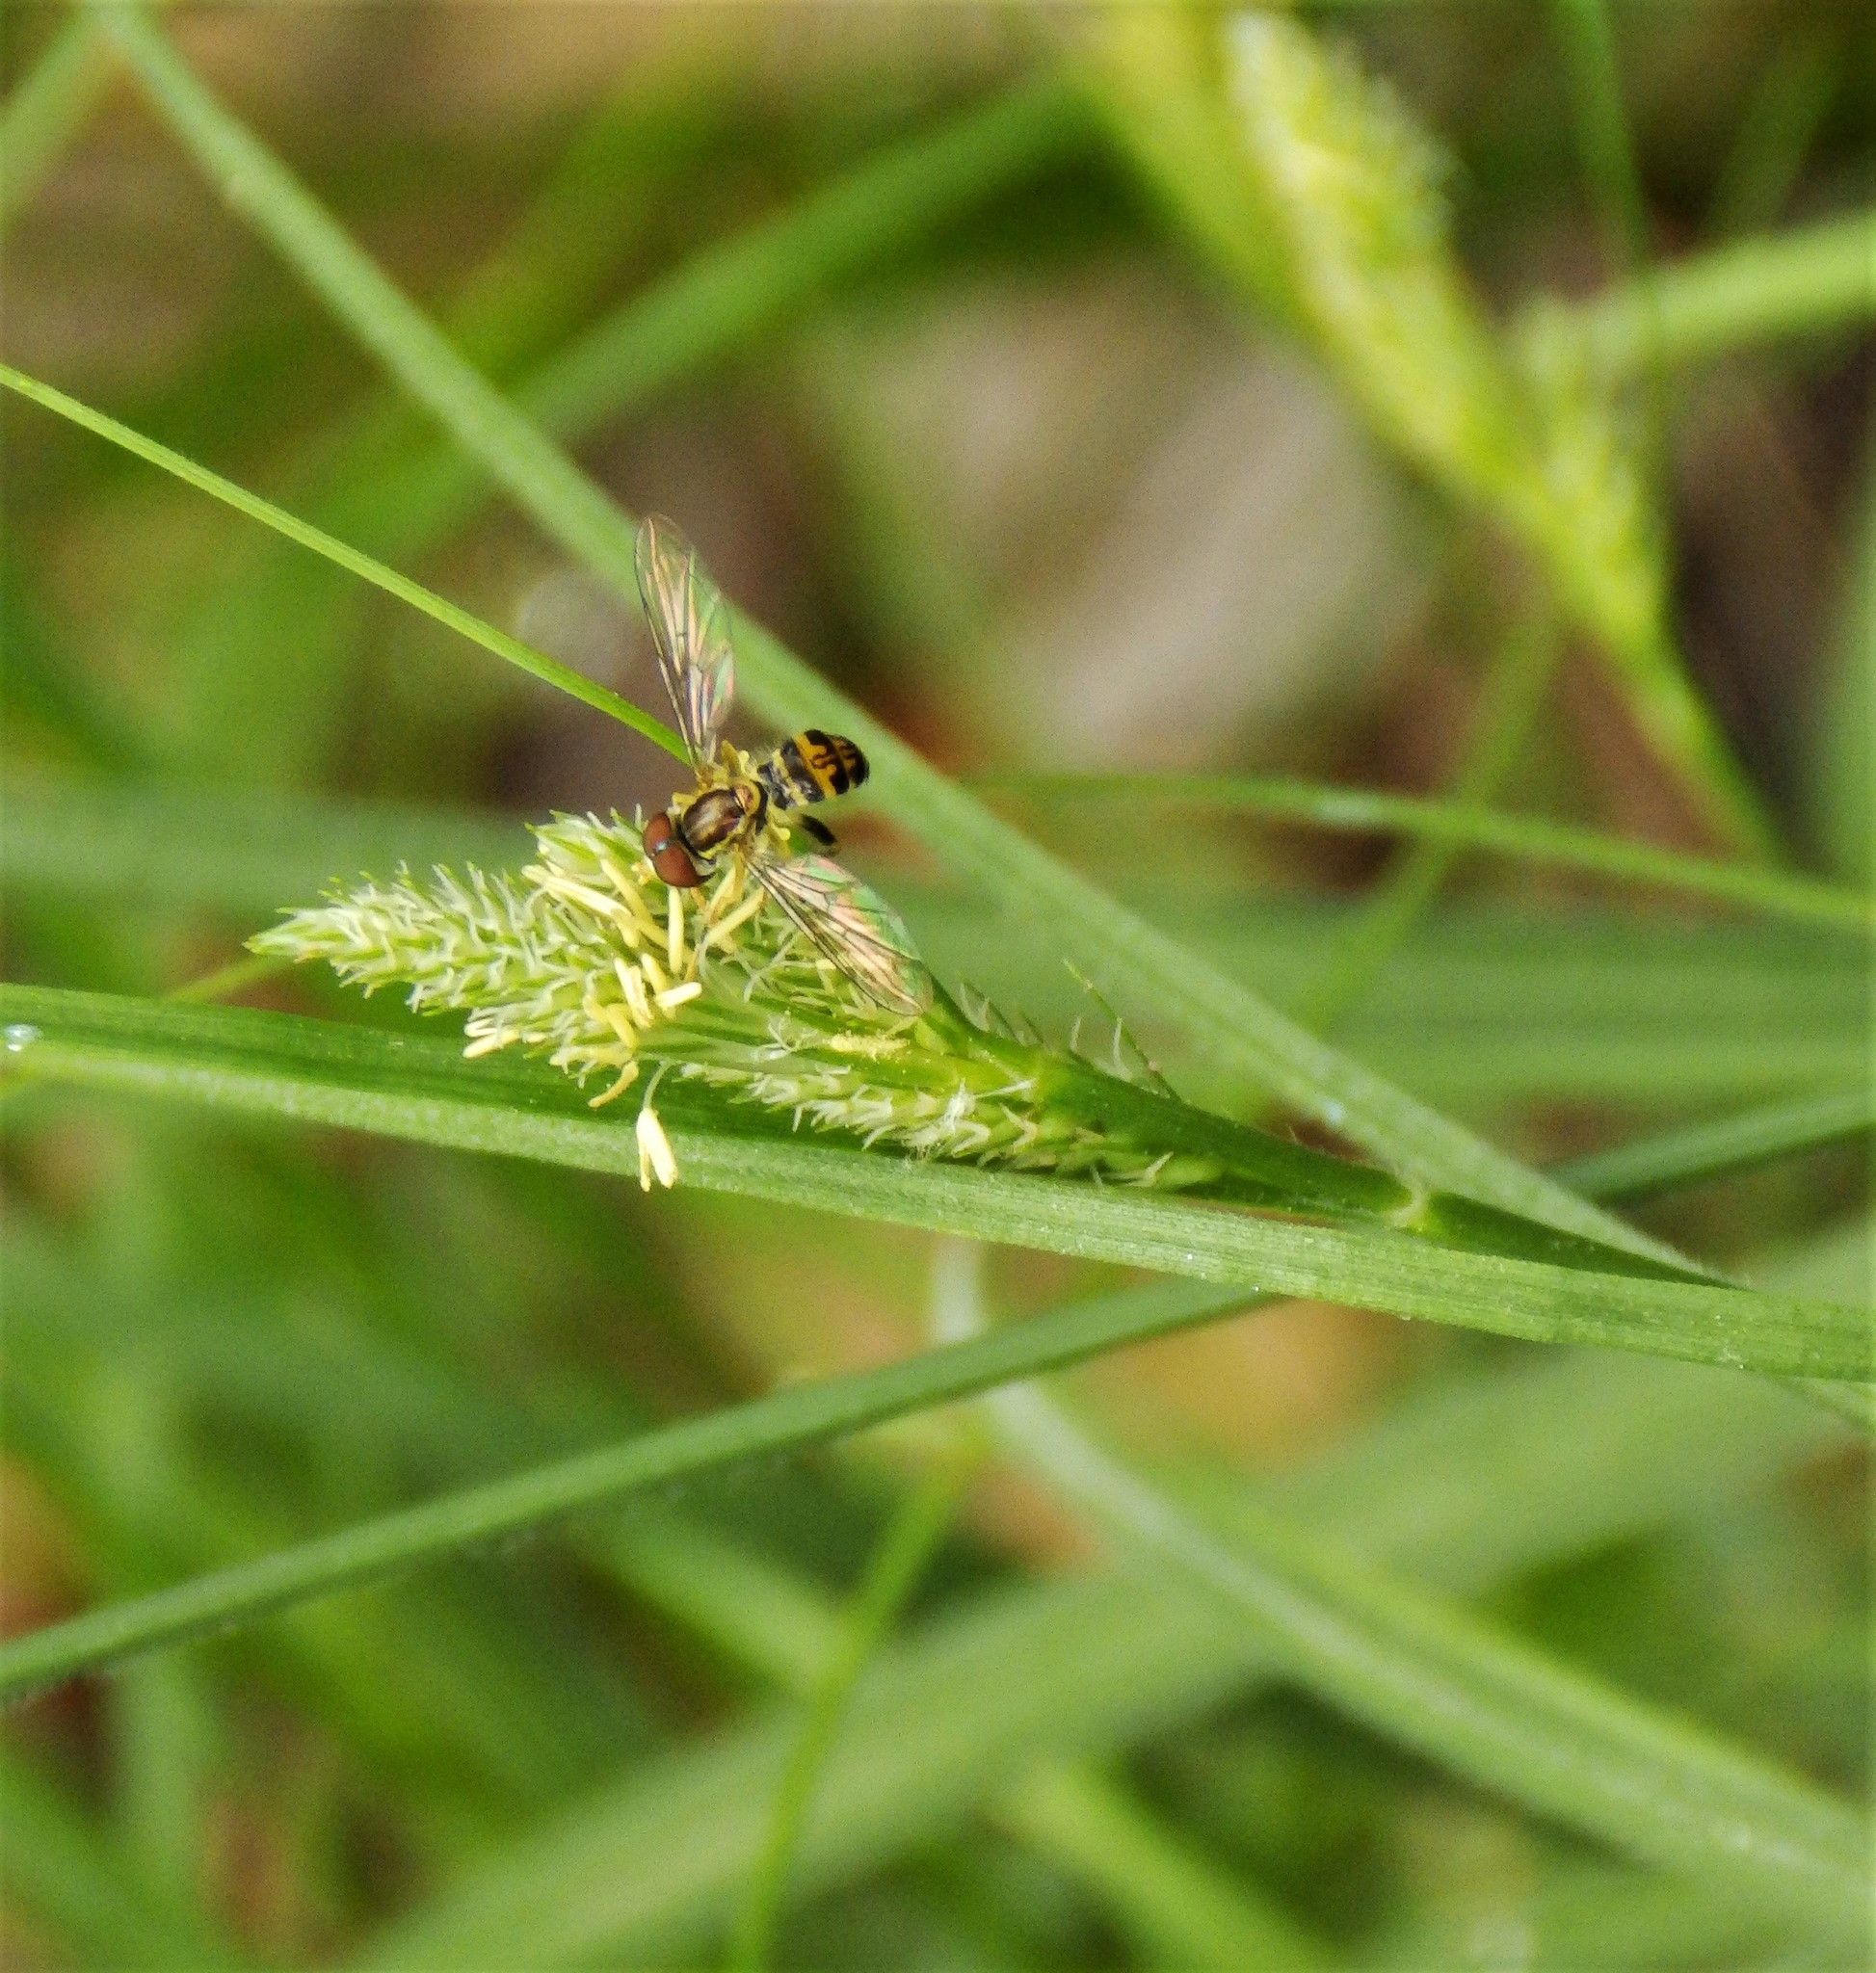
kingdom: Animalia
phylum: Arthropoda
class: Insecta
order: Diptera
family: Syrphidae
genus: Toxomerus
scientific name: Toxomerus geminatus
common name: Eastern calligrapher
